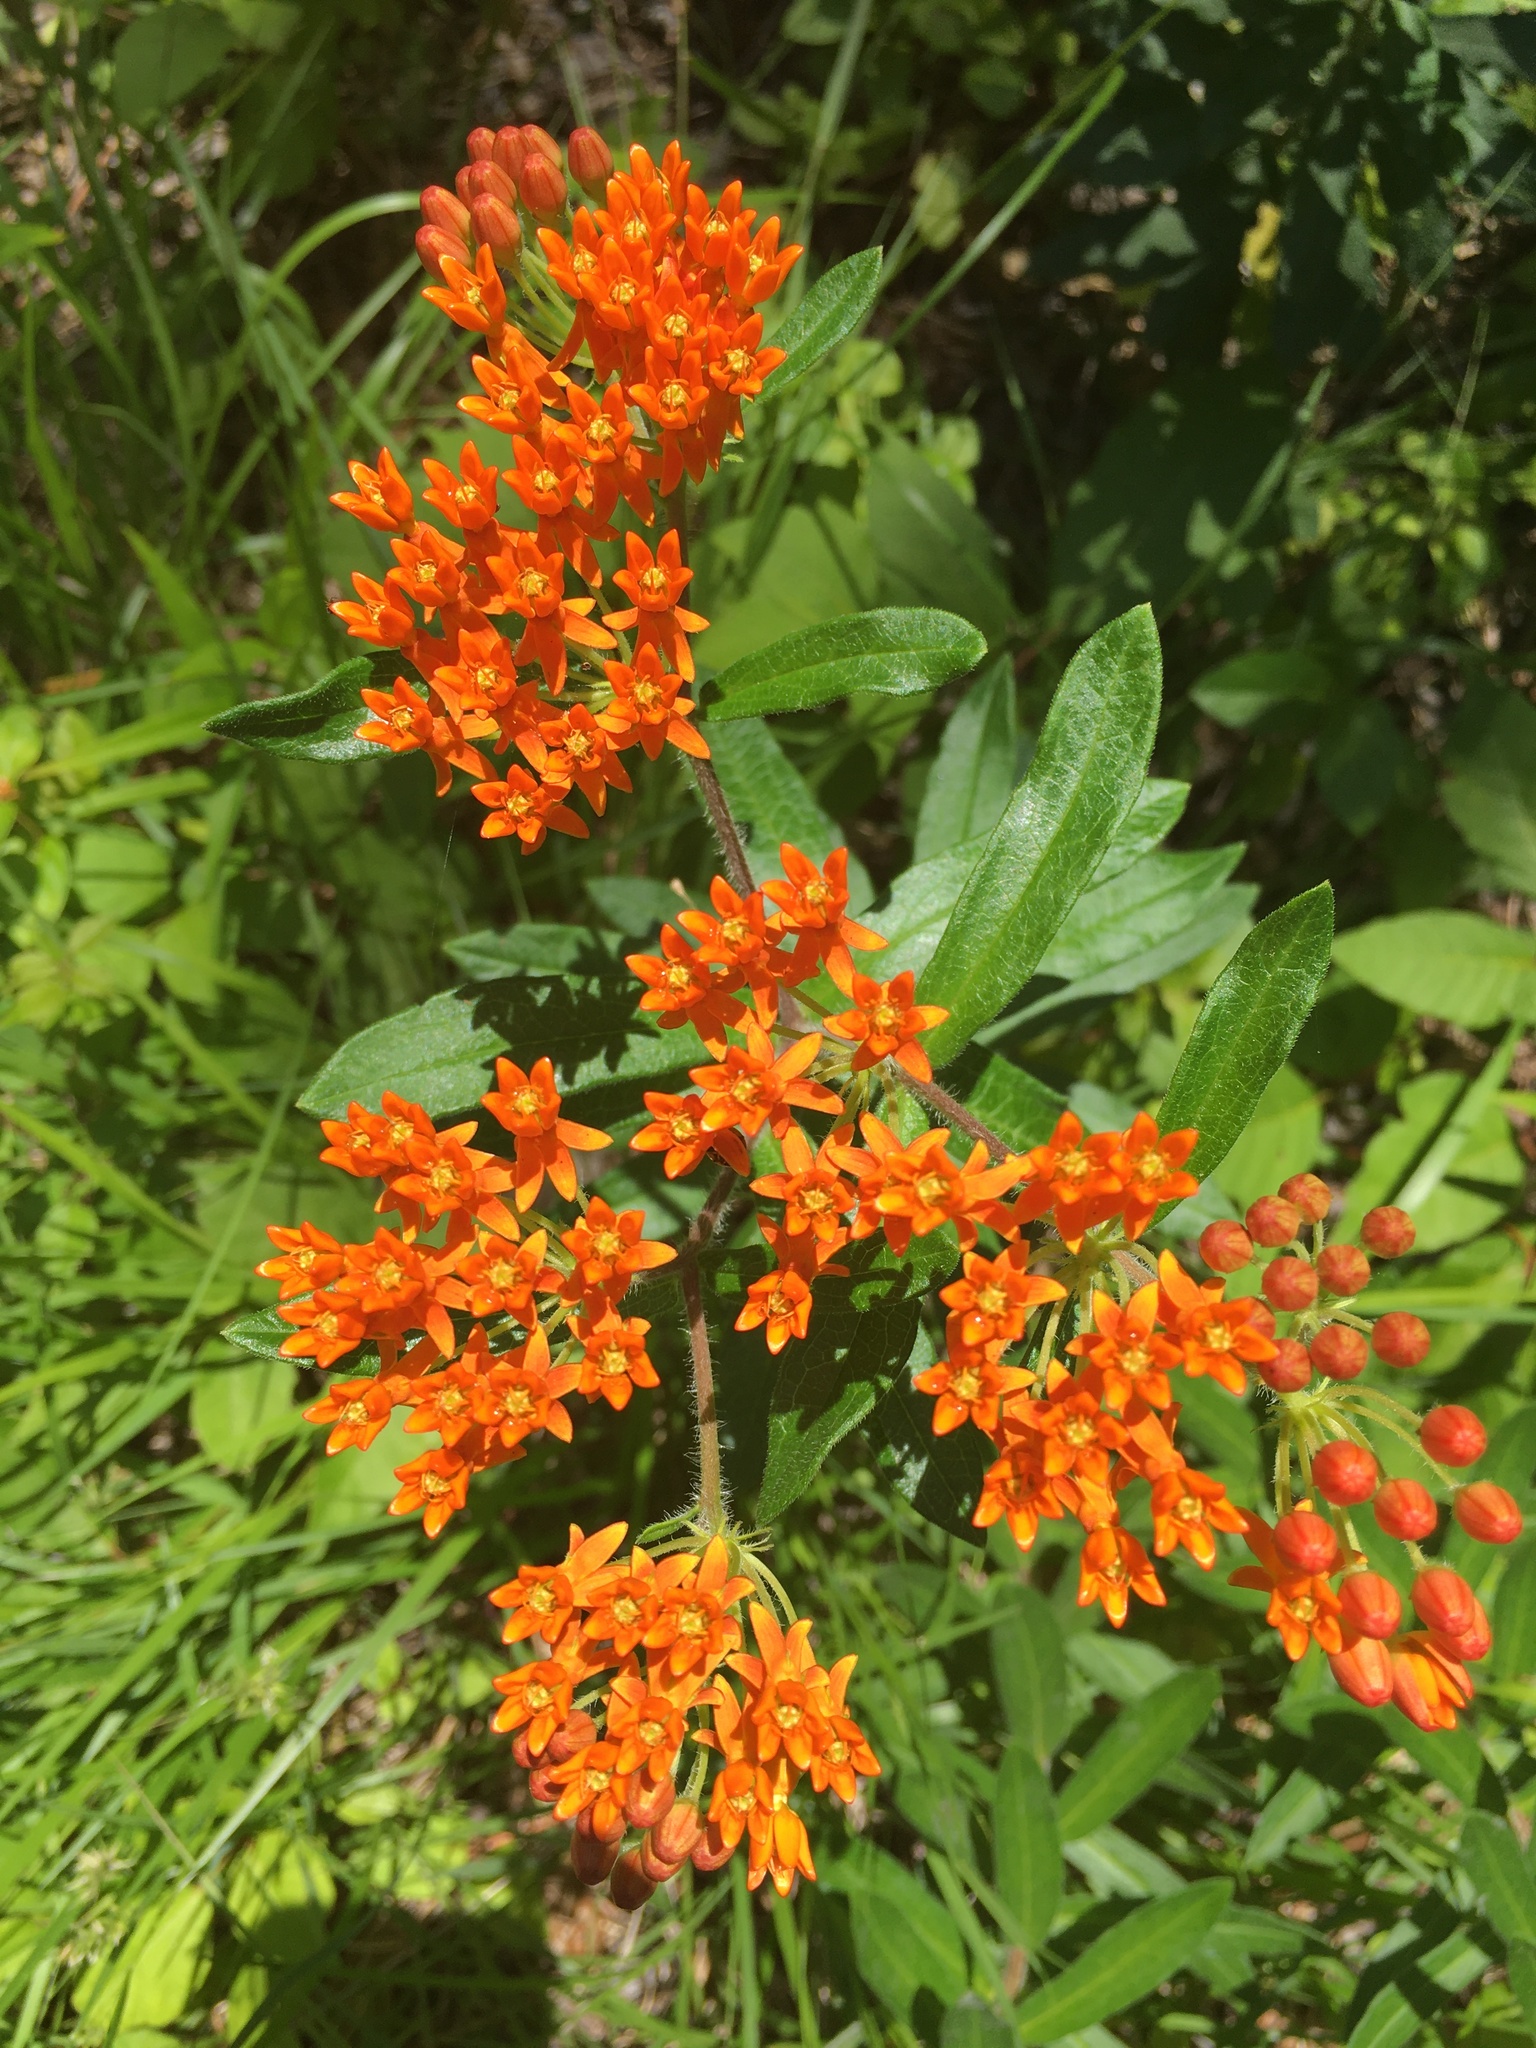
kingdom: Plantae
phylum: Tracheophyta
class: Magnoliopsida
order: Gentianales
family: Apocynaceae
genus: Asclepias
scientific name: Asclepias tuberosa
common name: Butterfly milkweed
